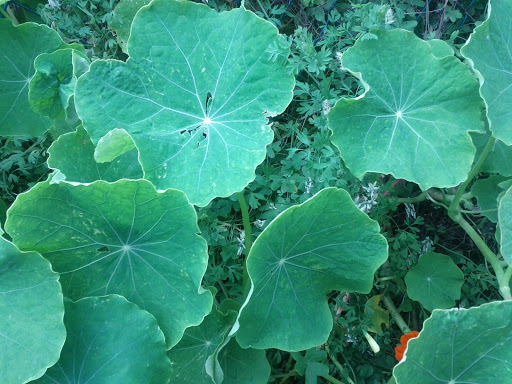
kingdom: Plantae
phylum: Tracheophyta
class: Magnoliopsida
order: Brassicales
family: Tropaeolaceae
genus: Tropaeolum
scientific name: Tropaeolum majus
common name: Nasturtium
